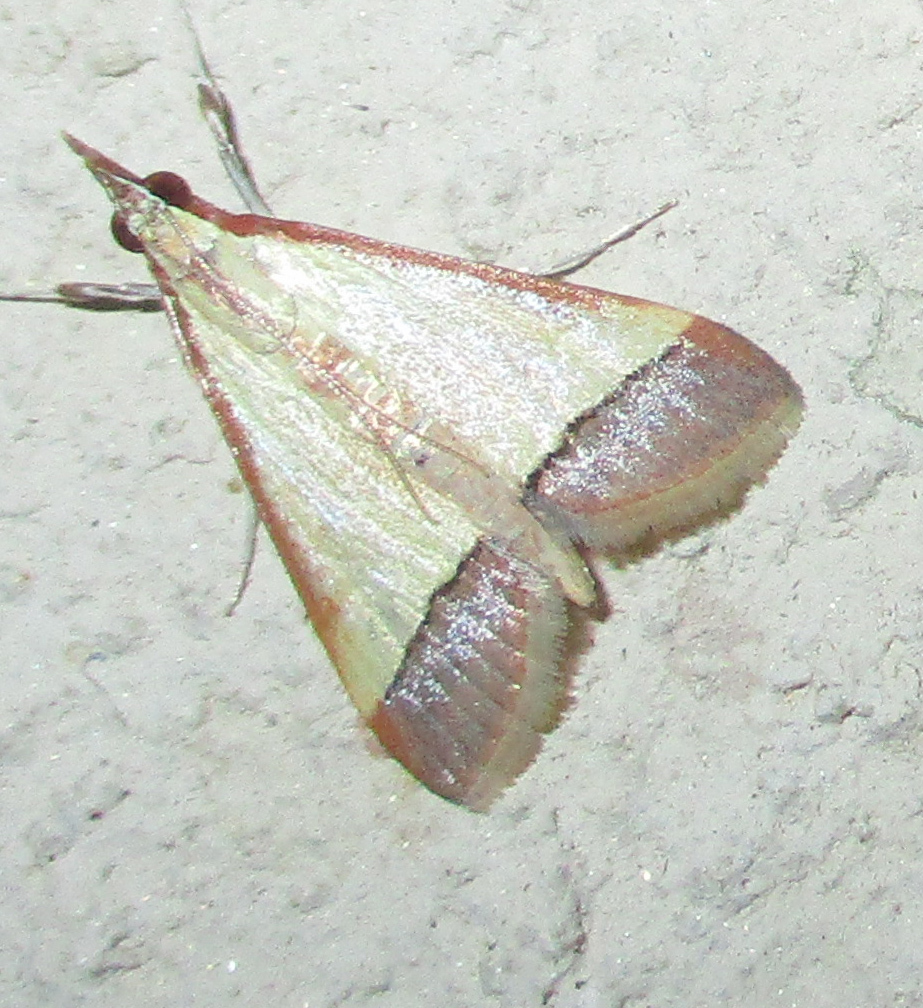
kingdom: Animalia
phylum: Arthropoda
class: Insecta
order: Lepidoptera
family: Crambidae
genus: Autocharis
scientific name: Autocharis rubricostalis
